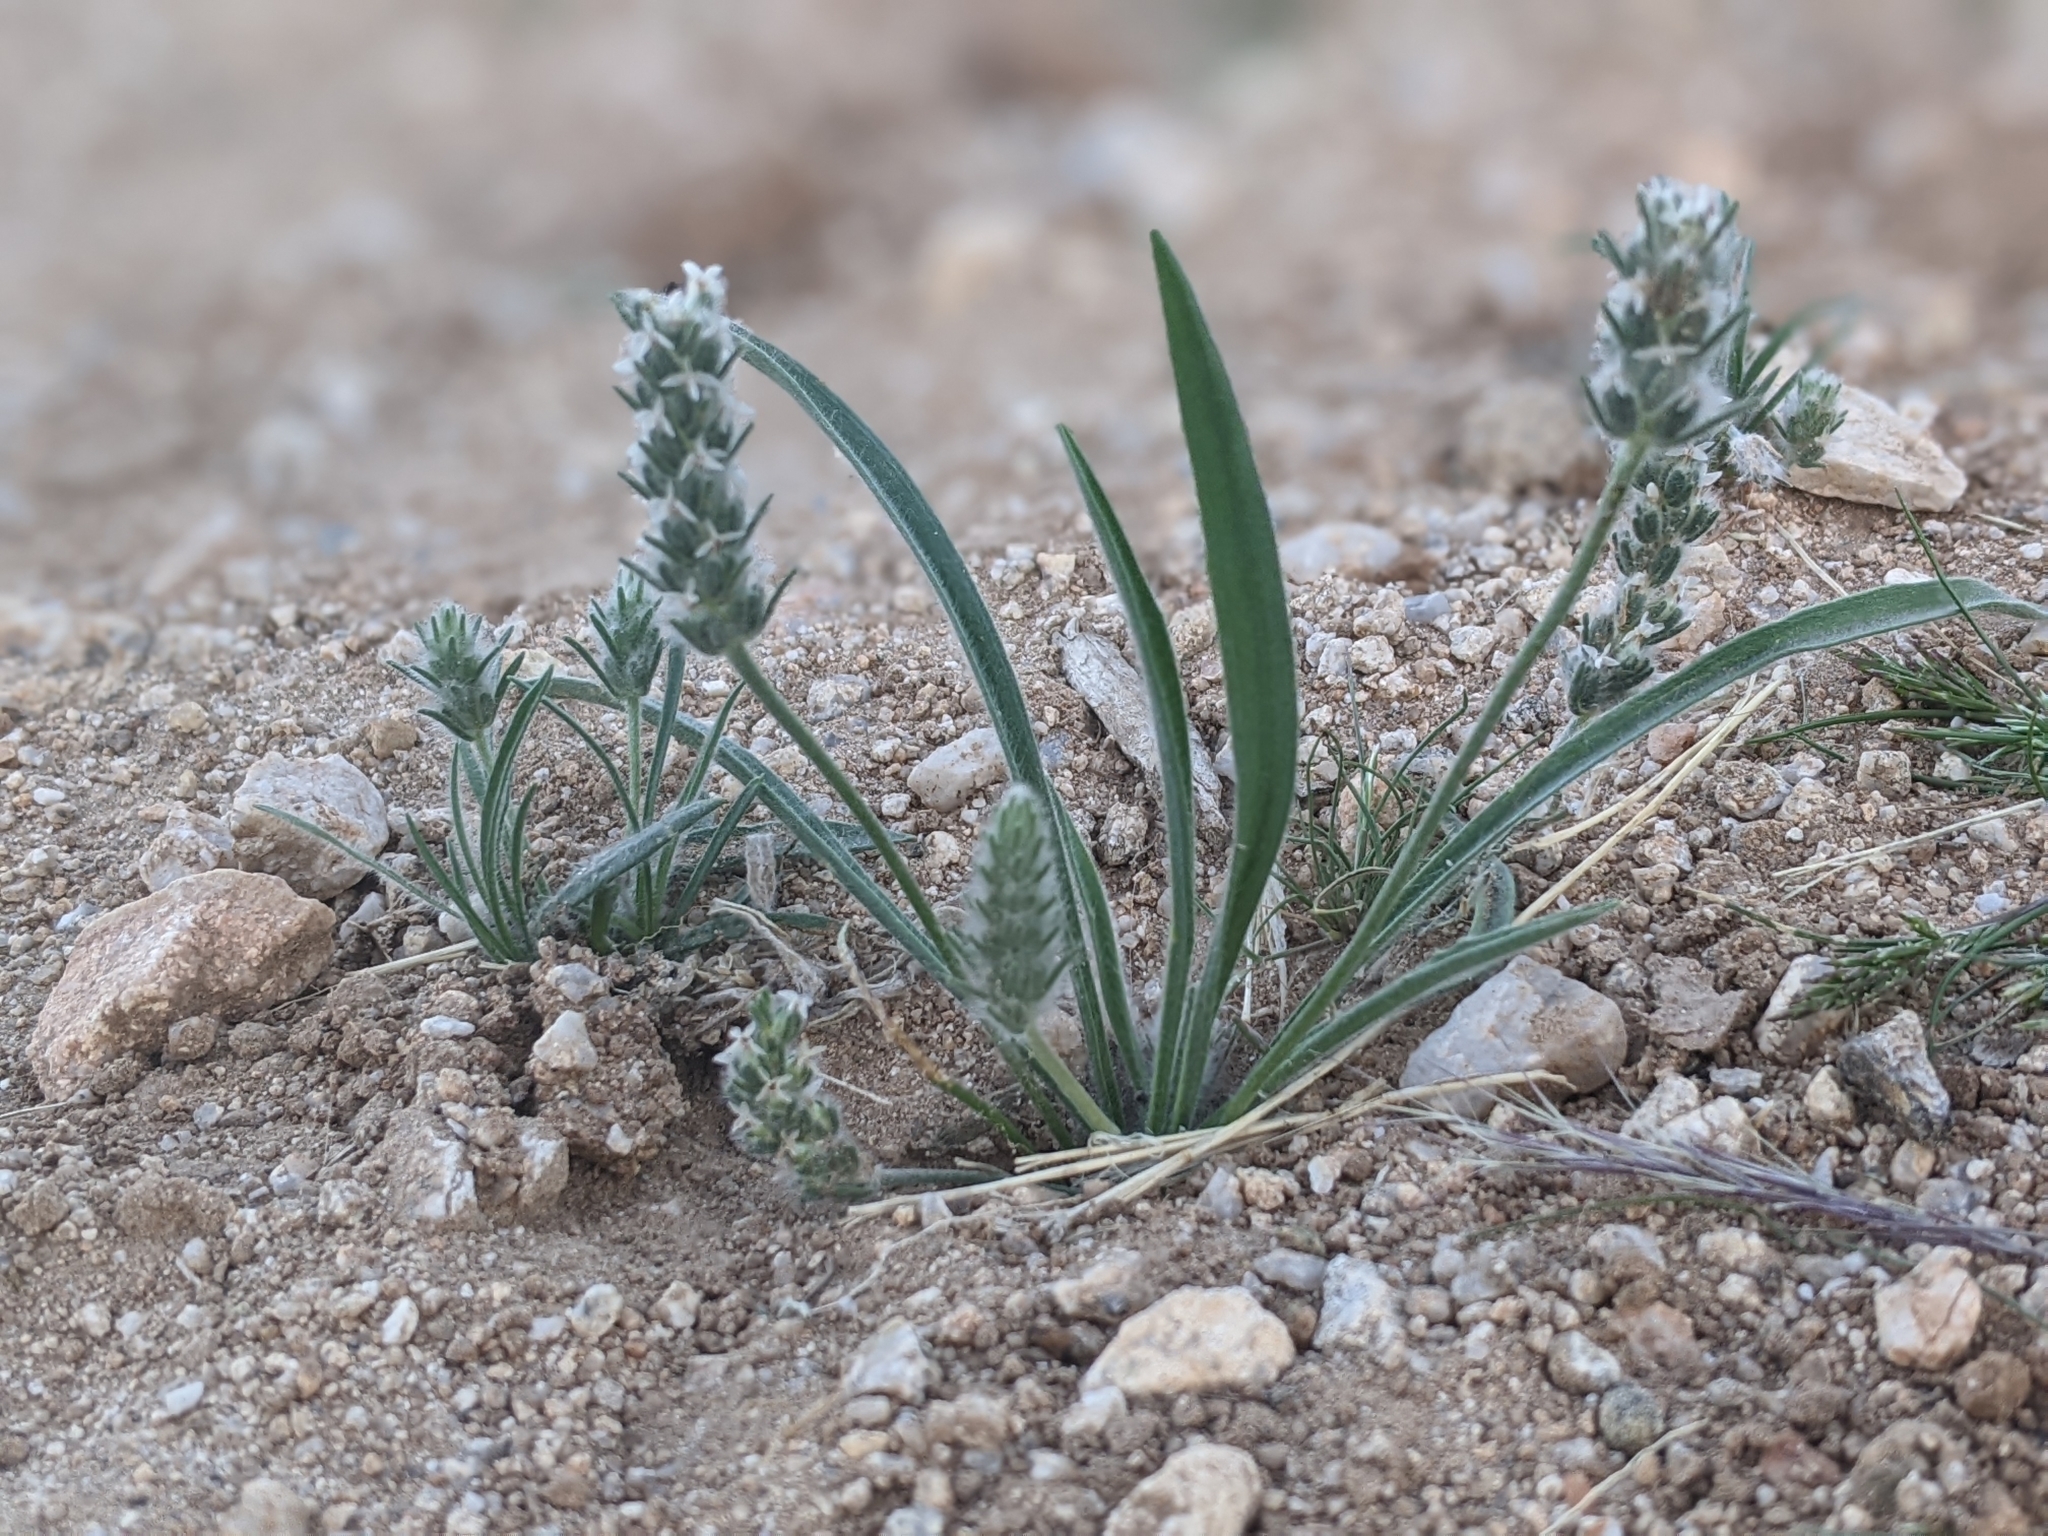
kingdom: Plantae
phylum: Tracheophyta
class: Magnoliopsida
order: Lamiales
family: Plantaginaceae
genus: Plantago
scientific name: Plantago patagonica
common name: Patagonia indian-wheat
